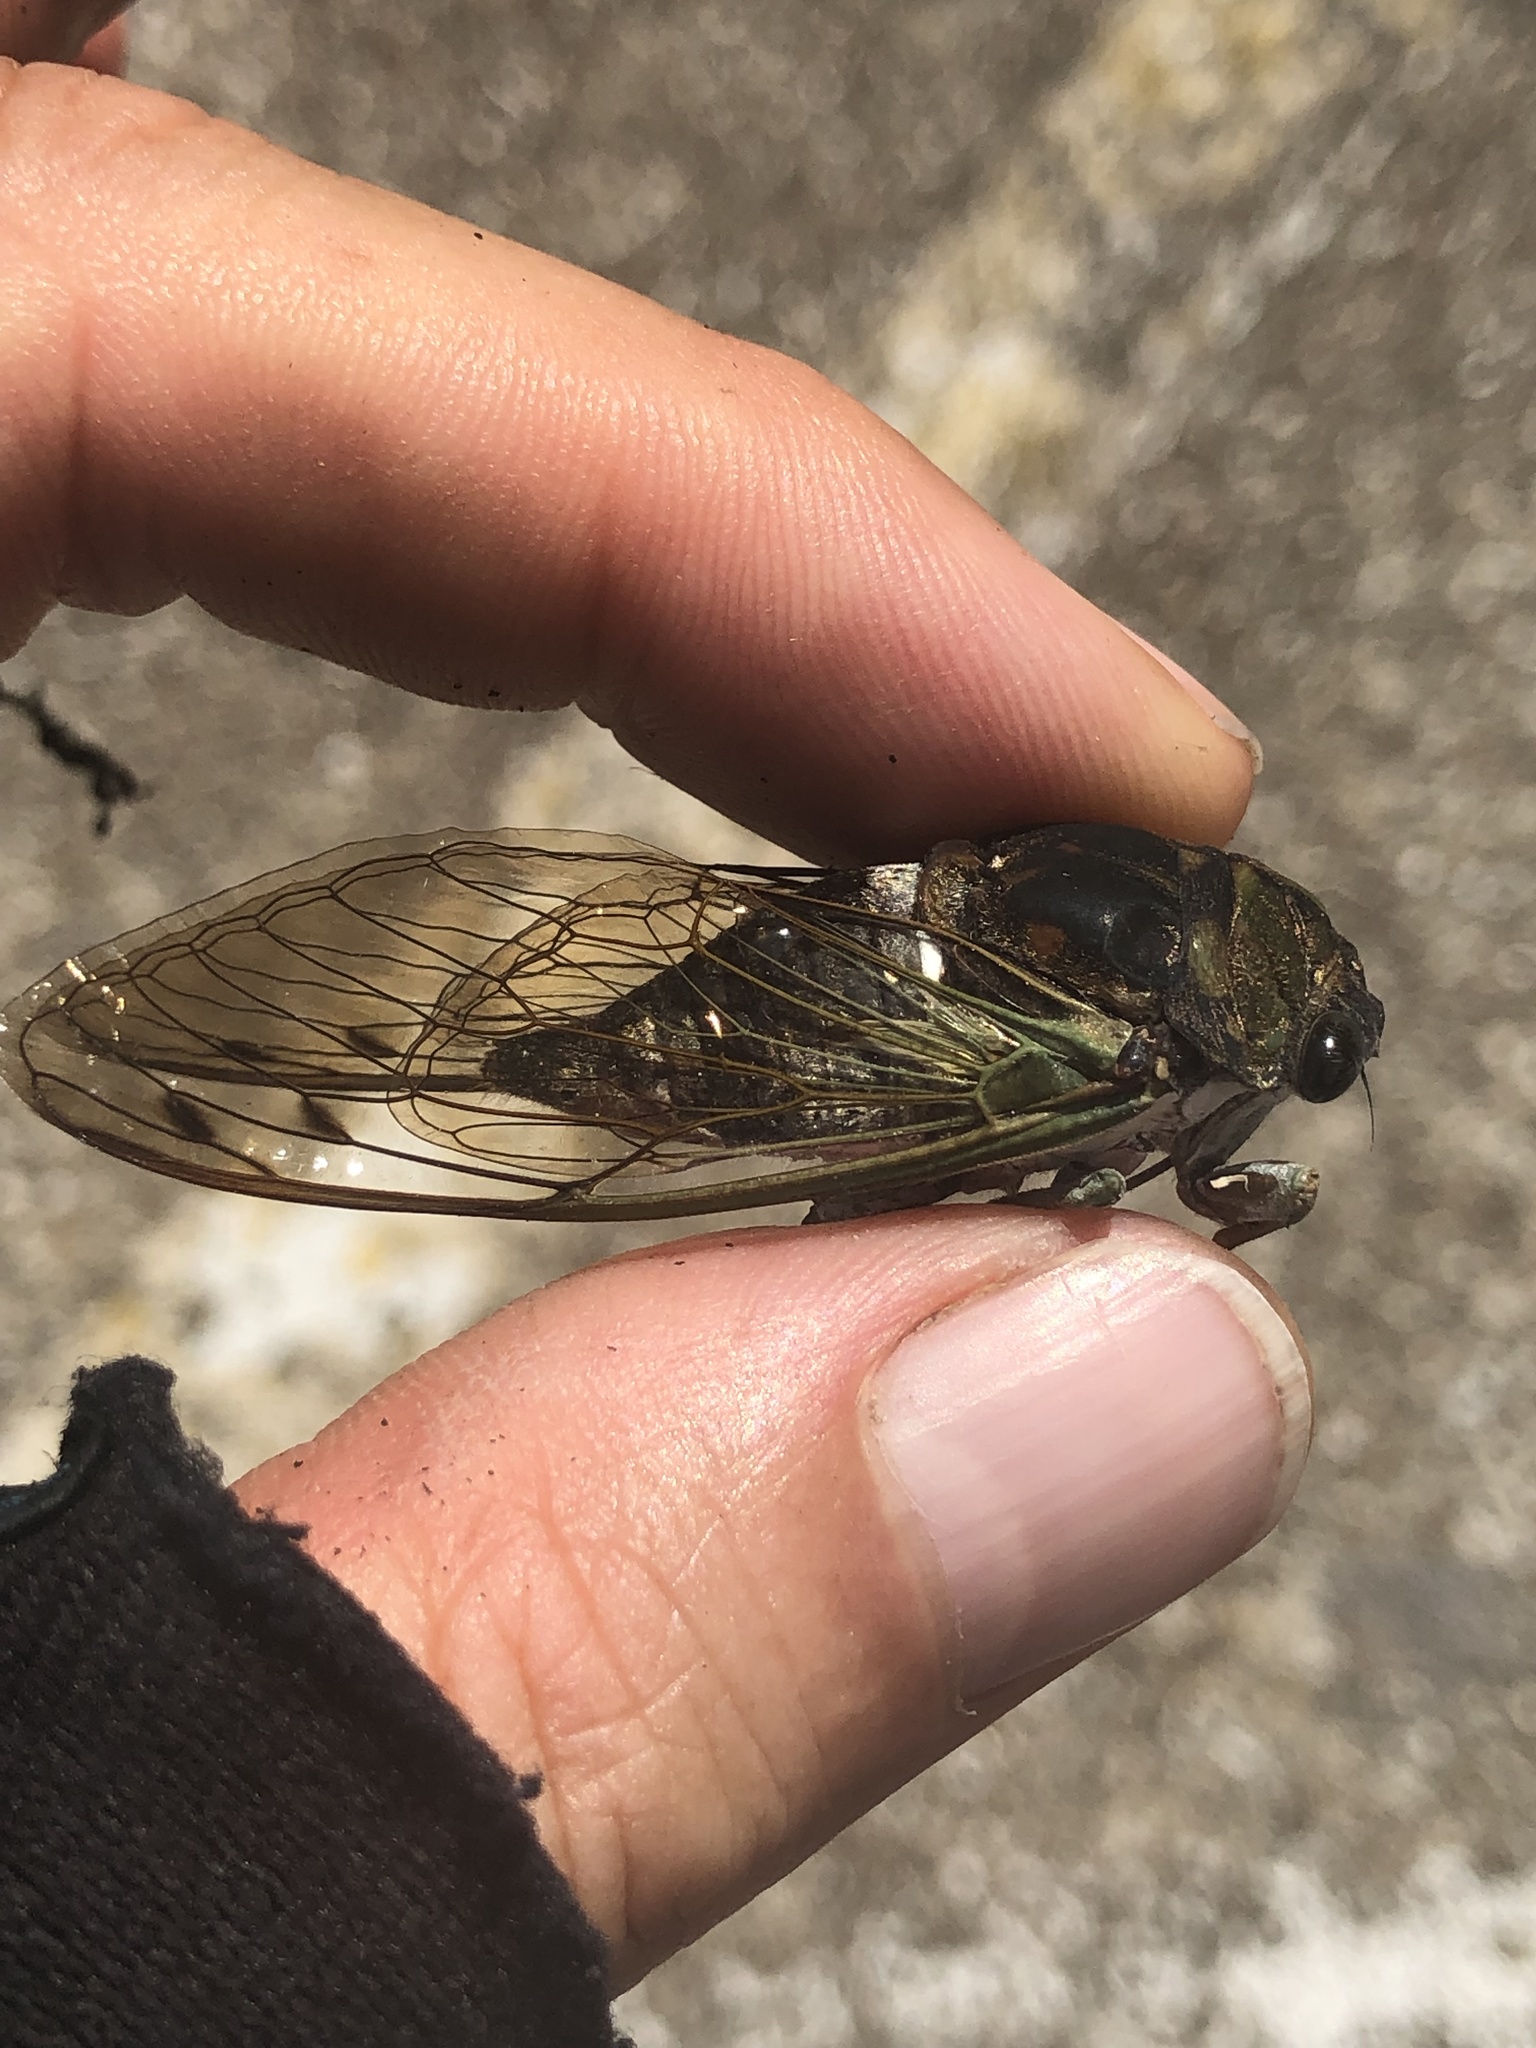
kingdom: Animalia
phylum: Arthropoda
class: Insecta
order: Hemiptera
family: Cicadidae
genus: Neotibicen
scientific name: Neotibicen tibicen
